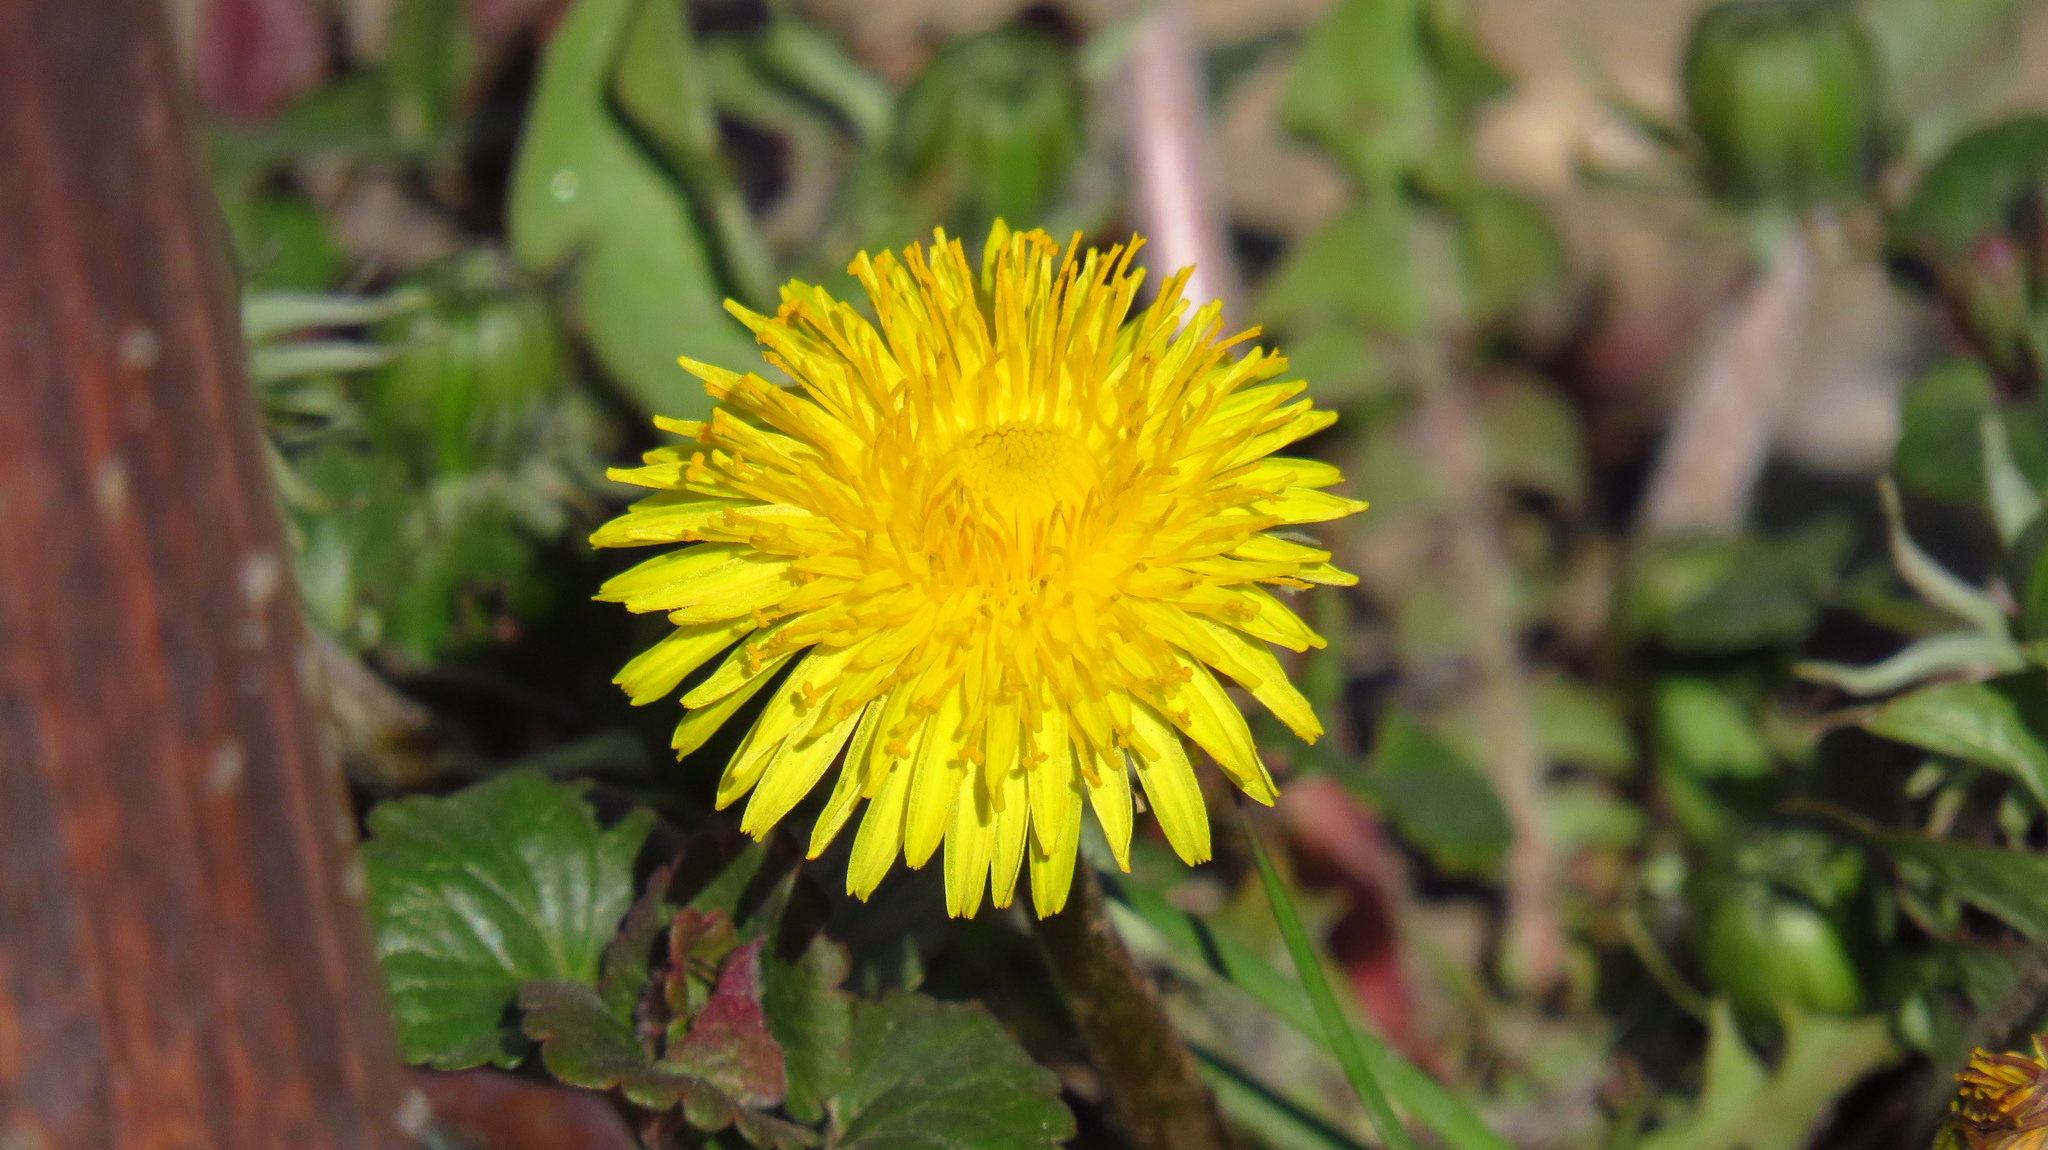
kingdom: Plantae
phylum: Tracheophyta
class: Magnoliopsida
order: Asterales
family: Asteraceae
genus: Taraxacum
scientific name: Taraxacum officinale
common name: Common dandelion
